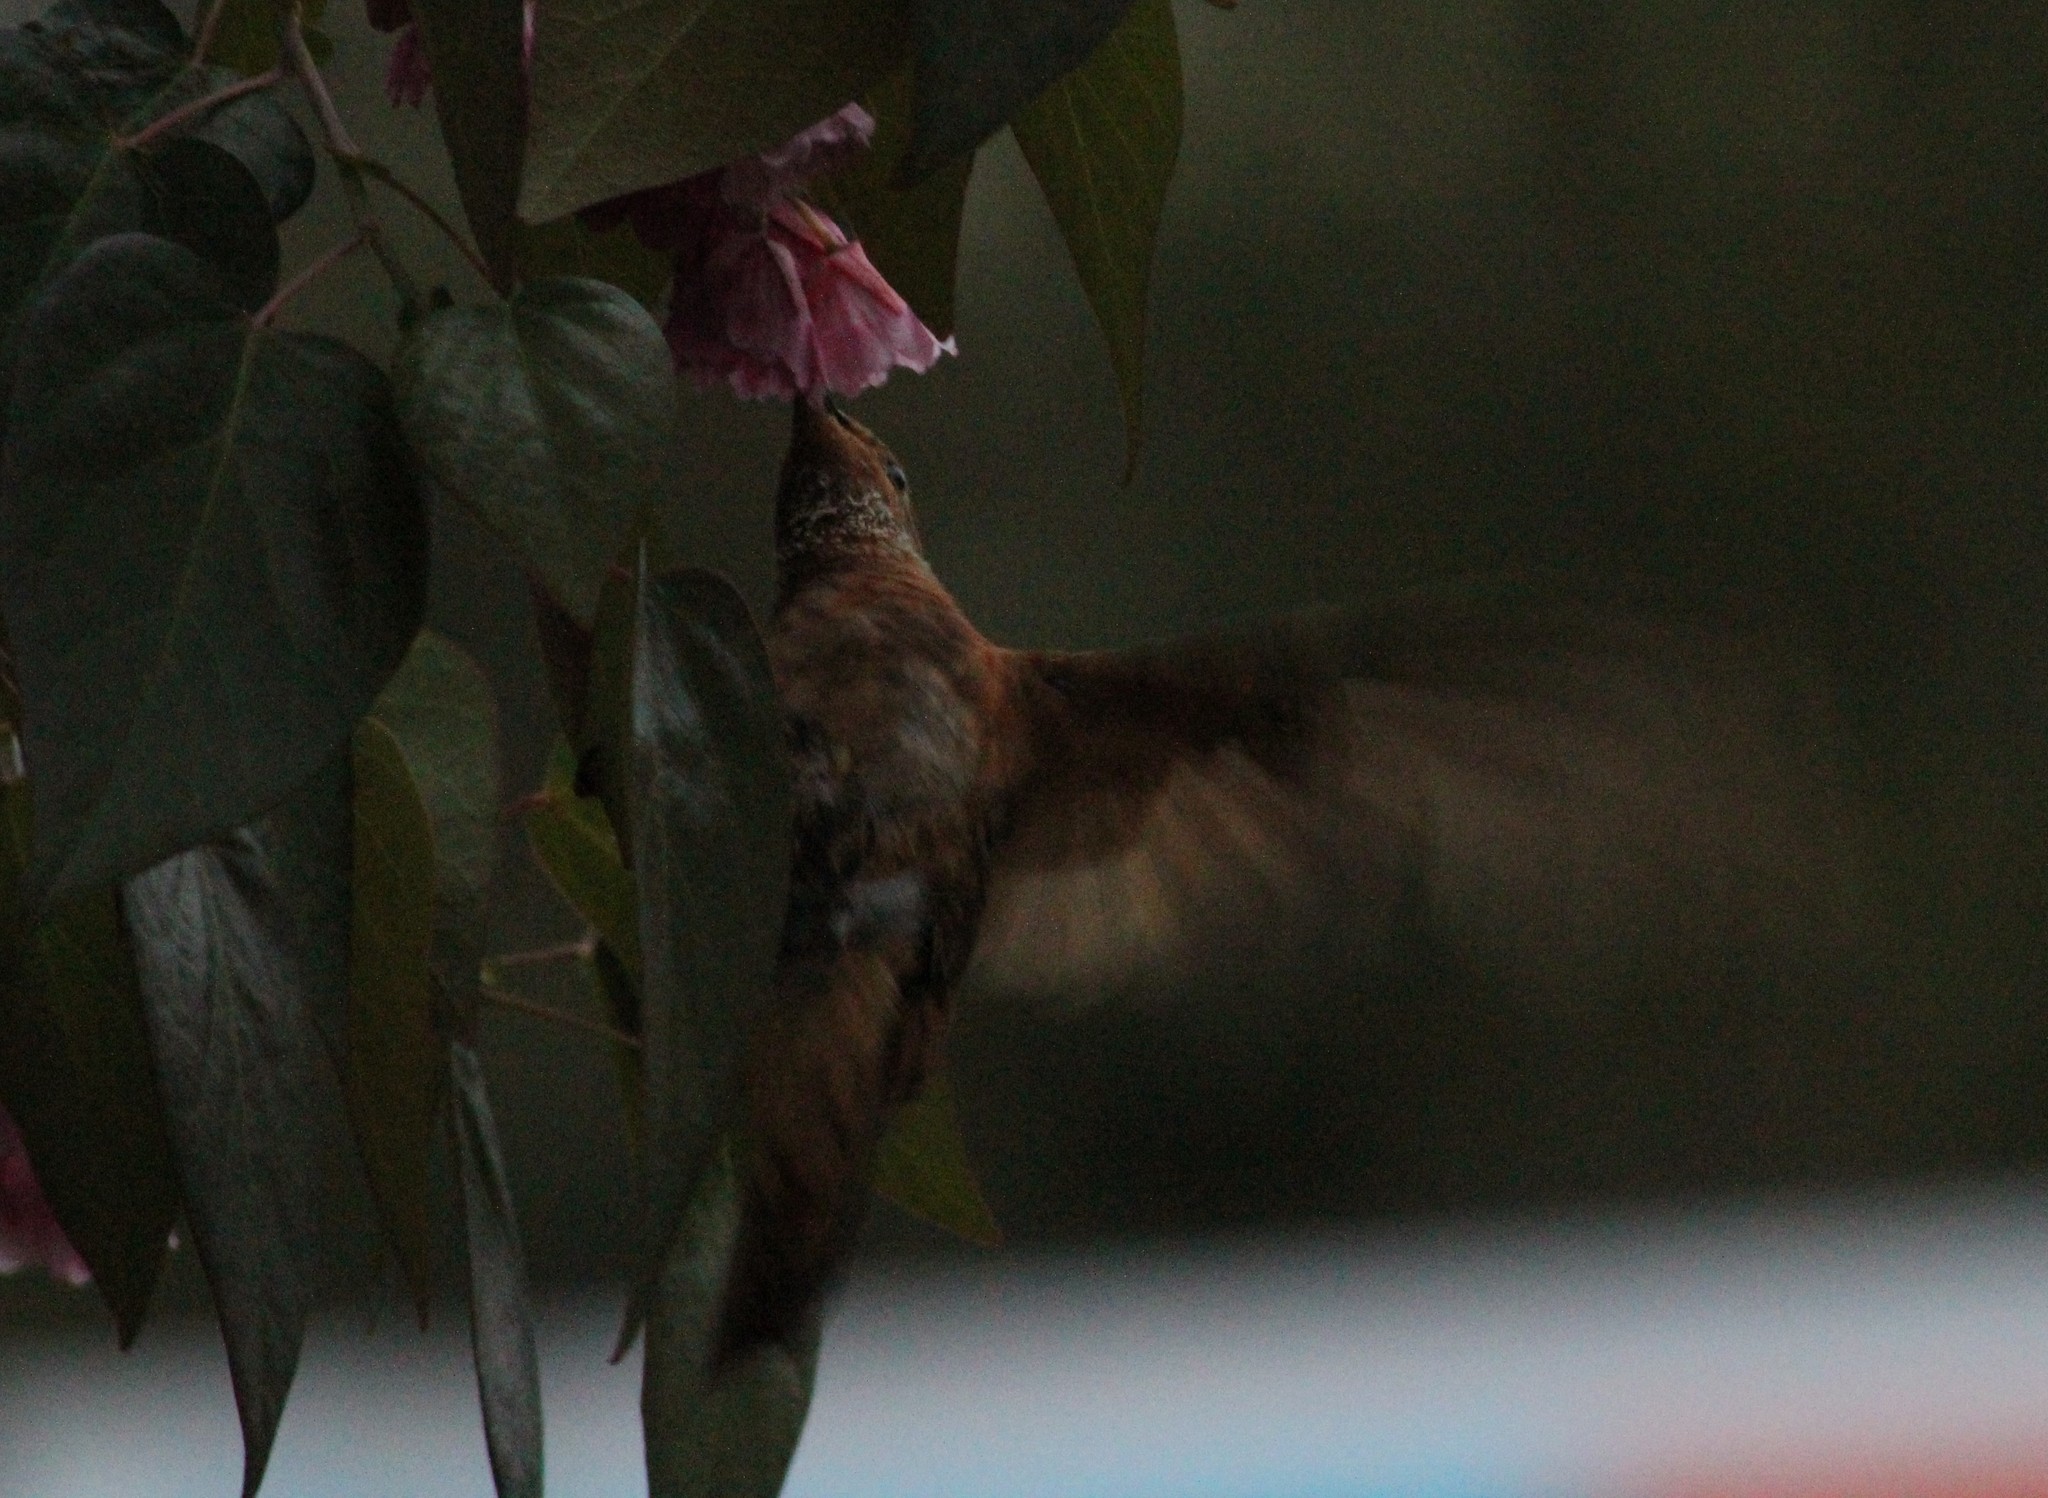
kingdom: Animalia
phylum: Chordata
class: Aves
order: Apodiformes
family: Trochilidae
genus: Aglaeactis
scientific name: Aglaeactis cupripennis
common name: Shining sunbeam
